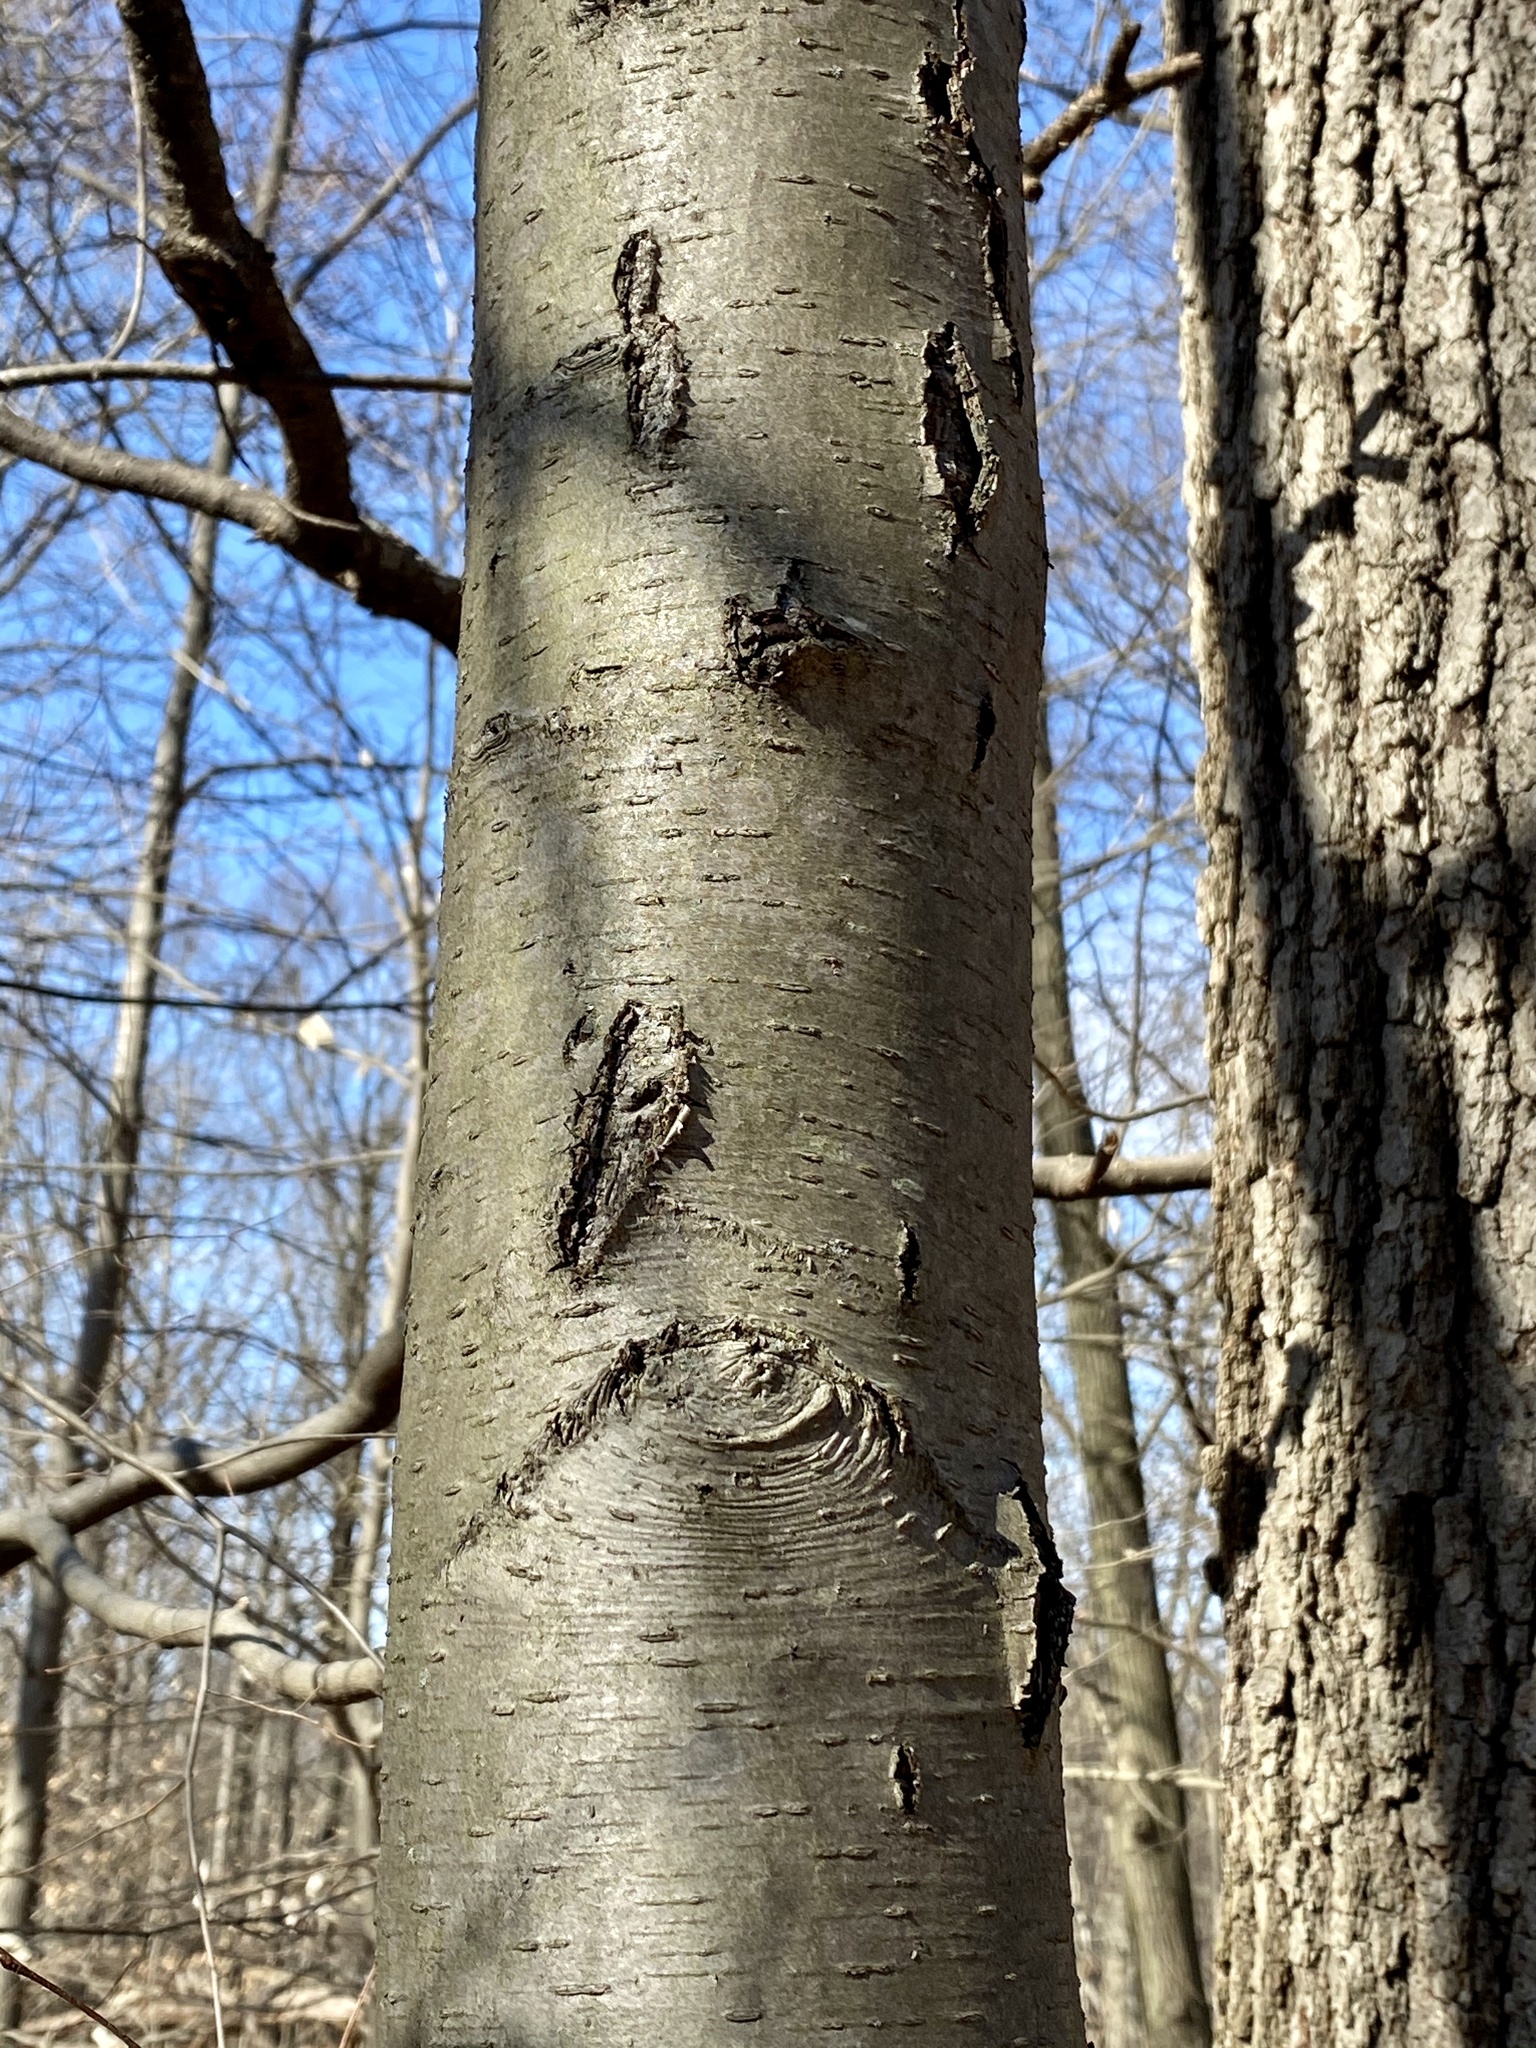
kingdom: Plantae
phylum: Tracheophyta
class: Magnoliopsida
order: Fagales
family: Betulaceae
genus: Betula
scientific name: Betula lenta
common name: Black birch
